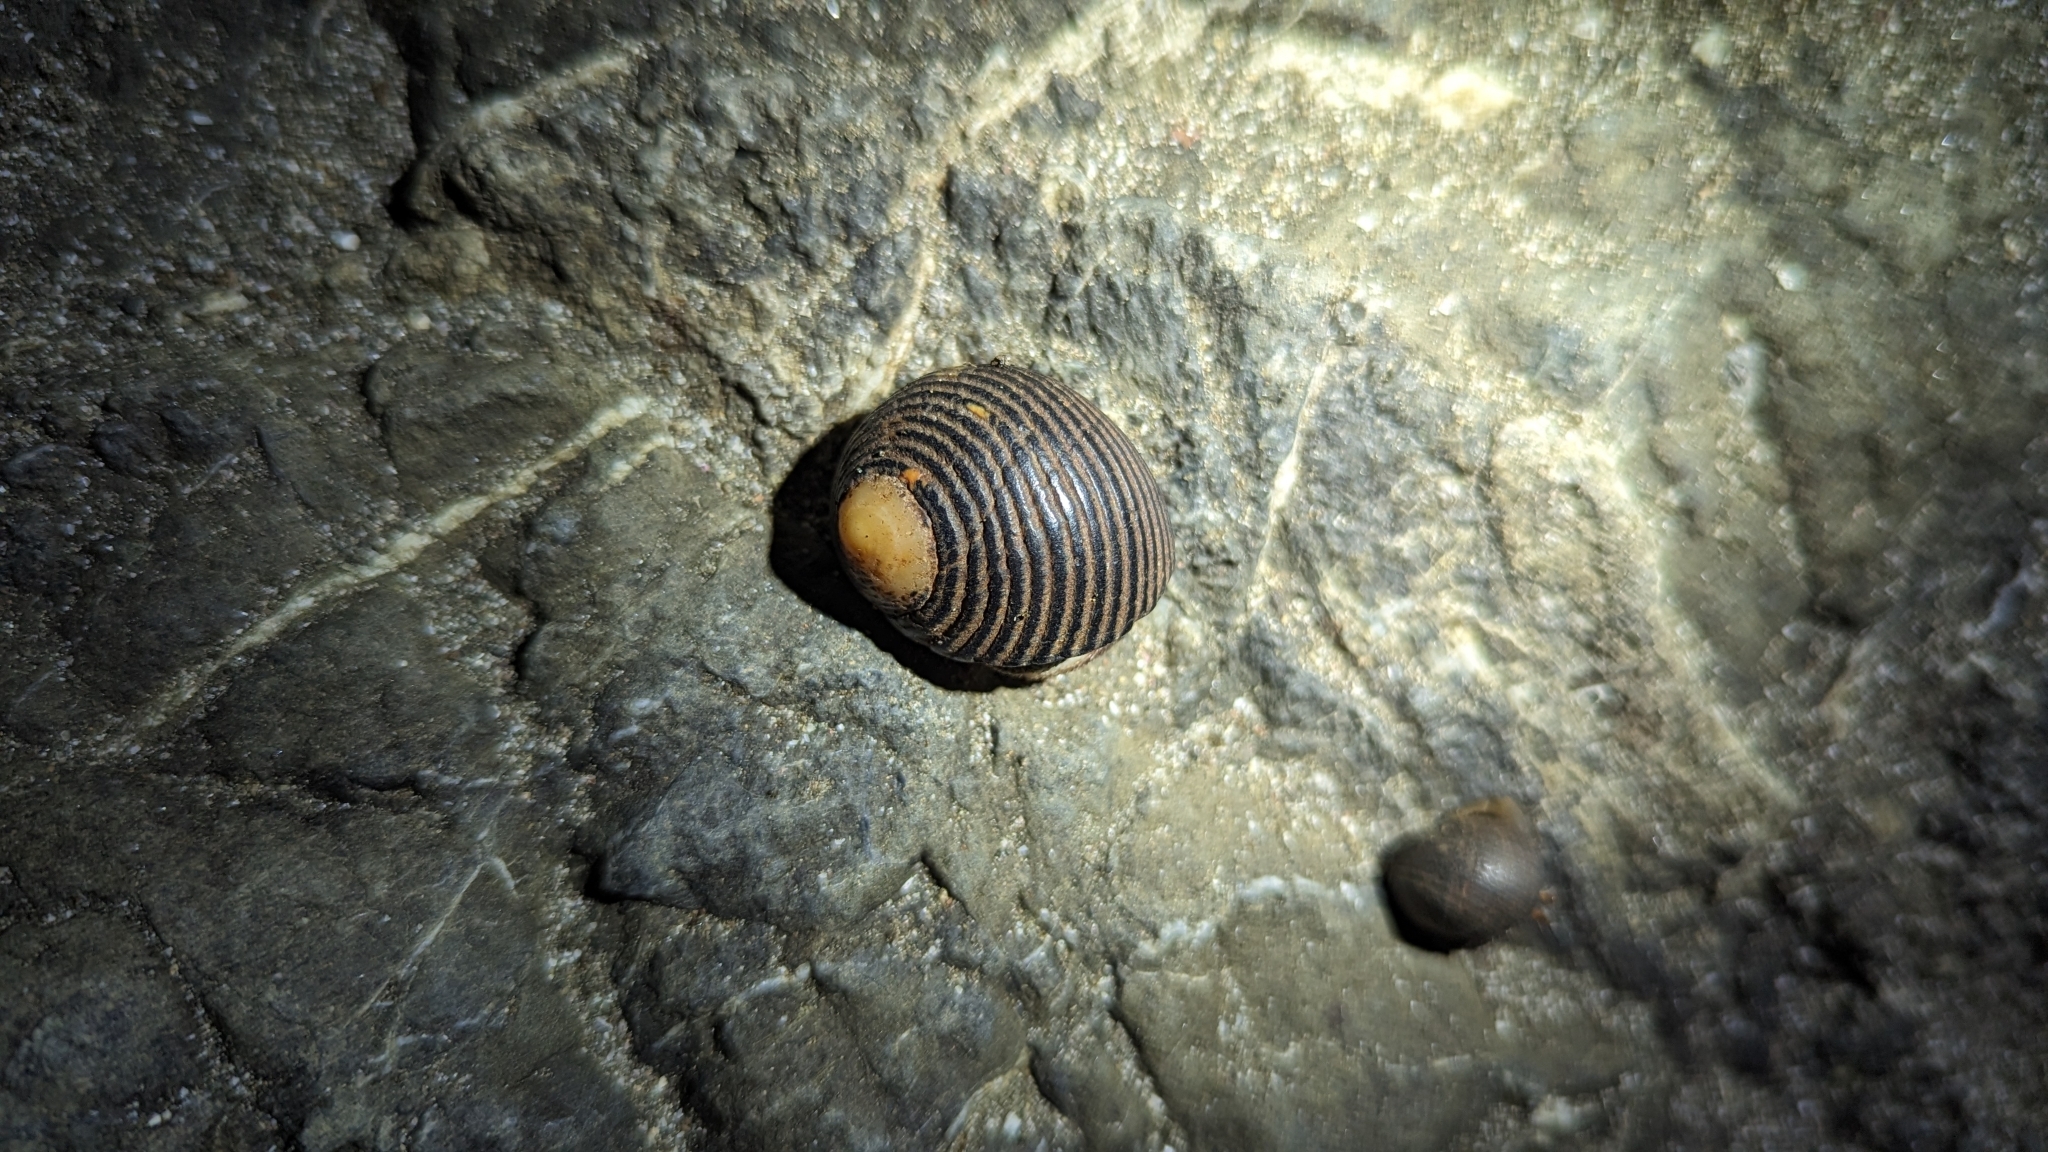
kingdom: Animalia
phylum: Mollusca
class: Gastropoda
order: Cycloneritida
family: Neritidae
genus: Nerita
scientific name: Nerita scabricosta
